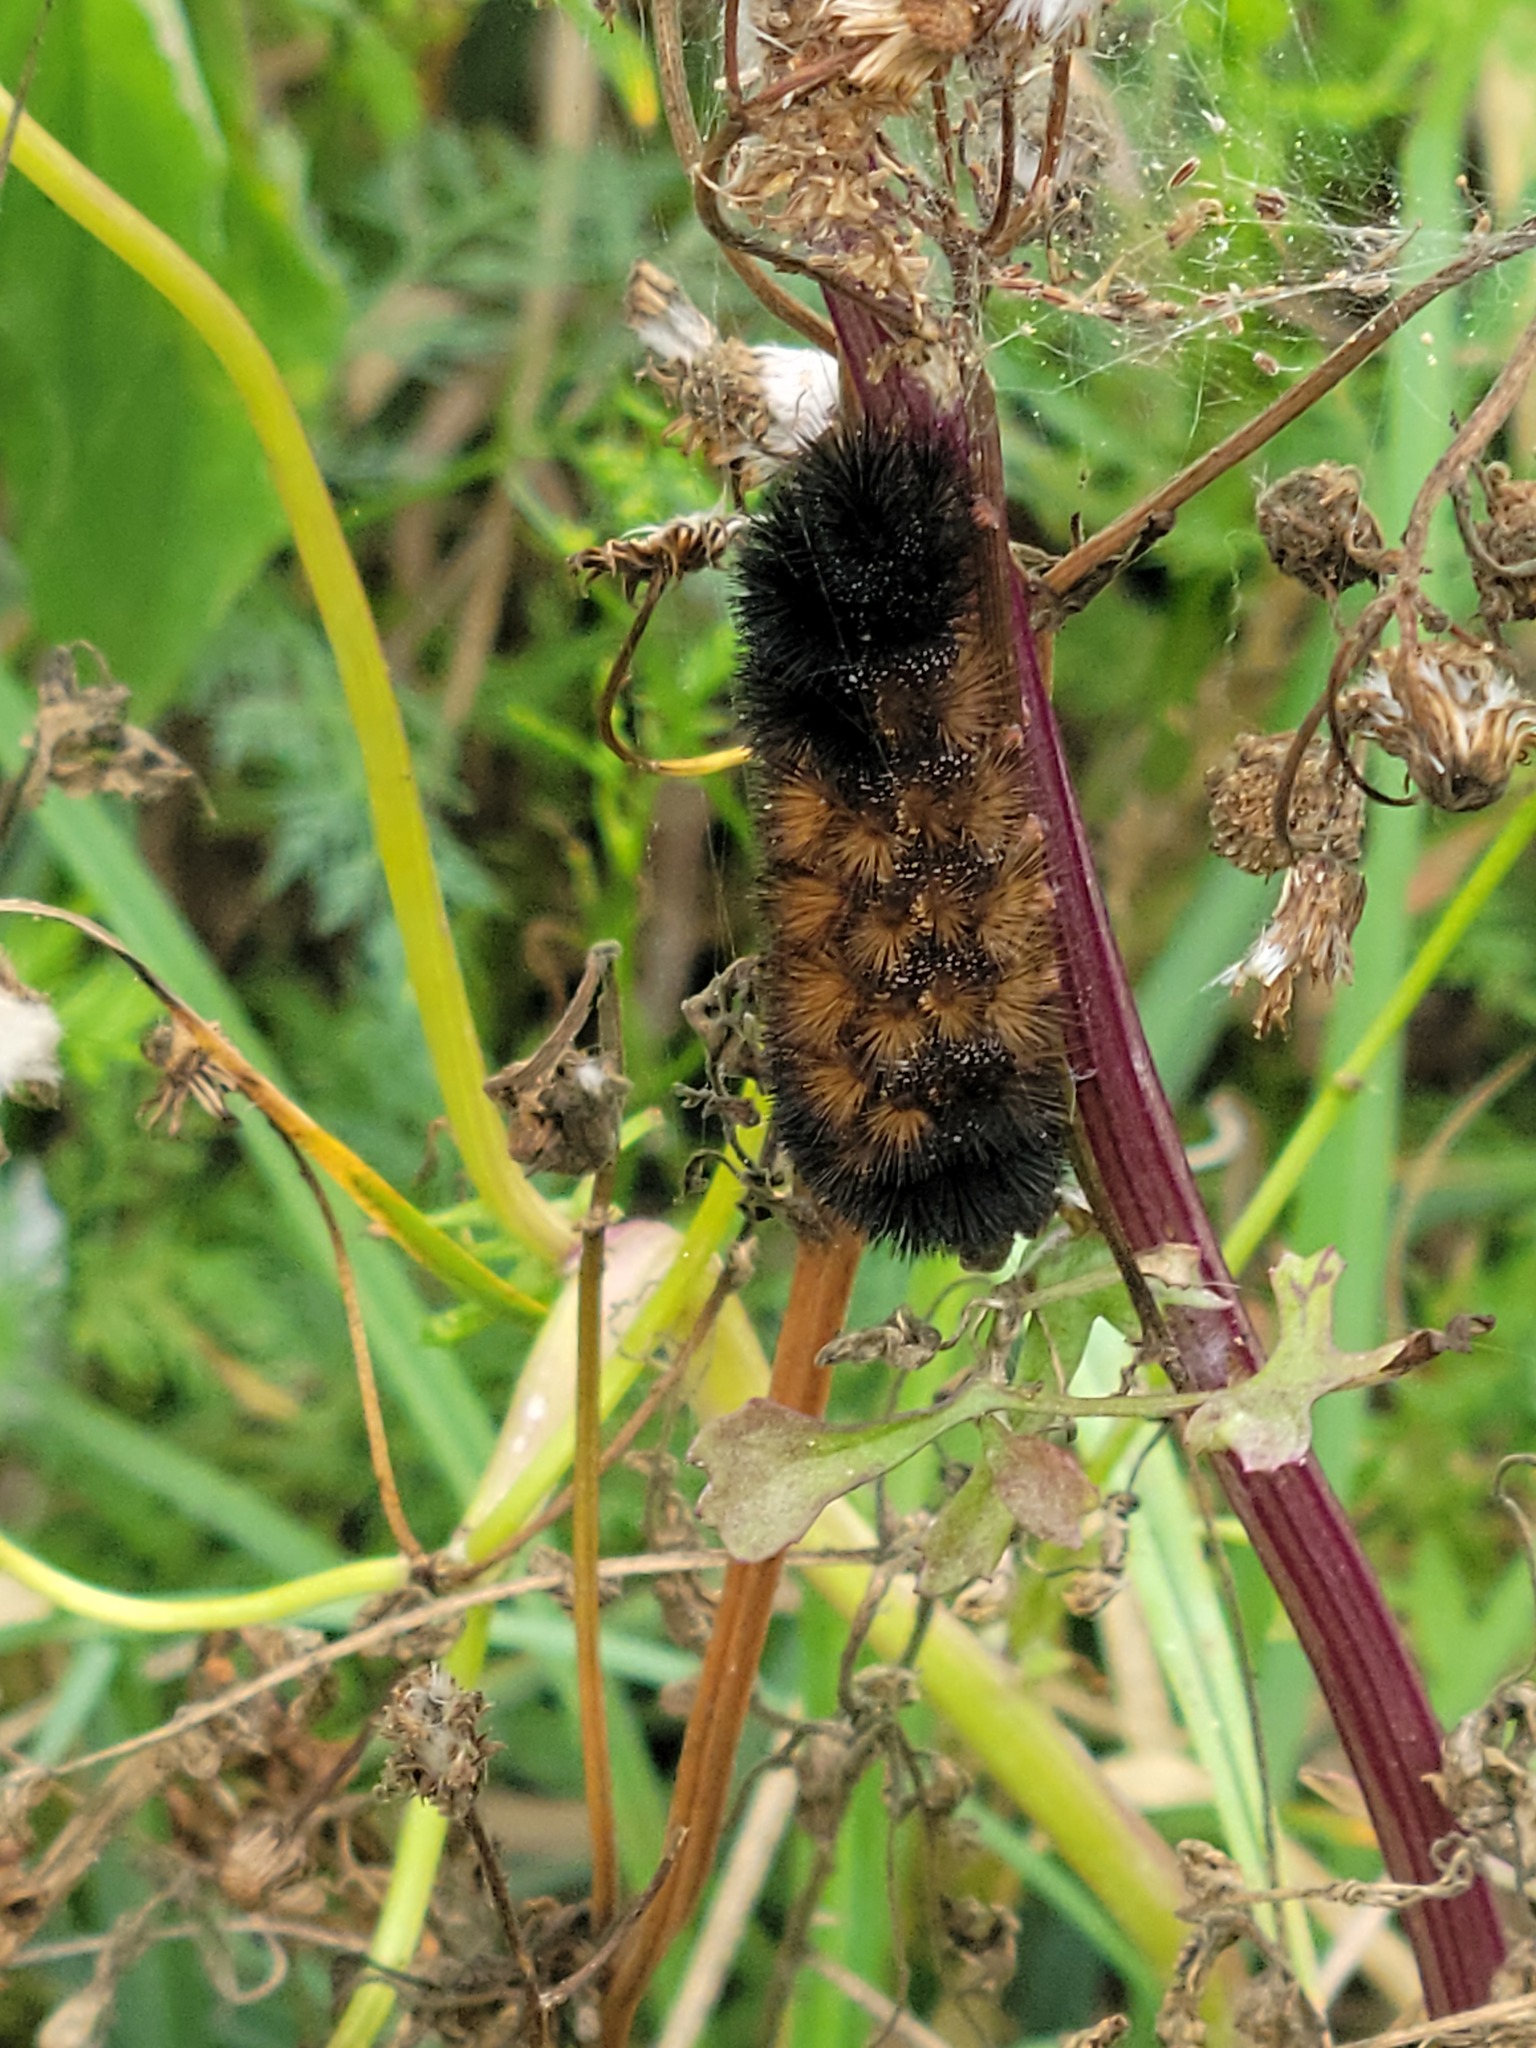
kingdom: Animalia
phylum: Arthropoda
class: Insecta
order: Lepidoptera
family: Erebidae
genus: Pyrrharctia
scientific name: Pyrrharctia isabella
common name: Isabella tiger moth
